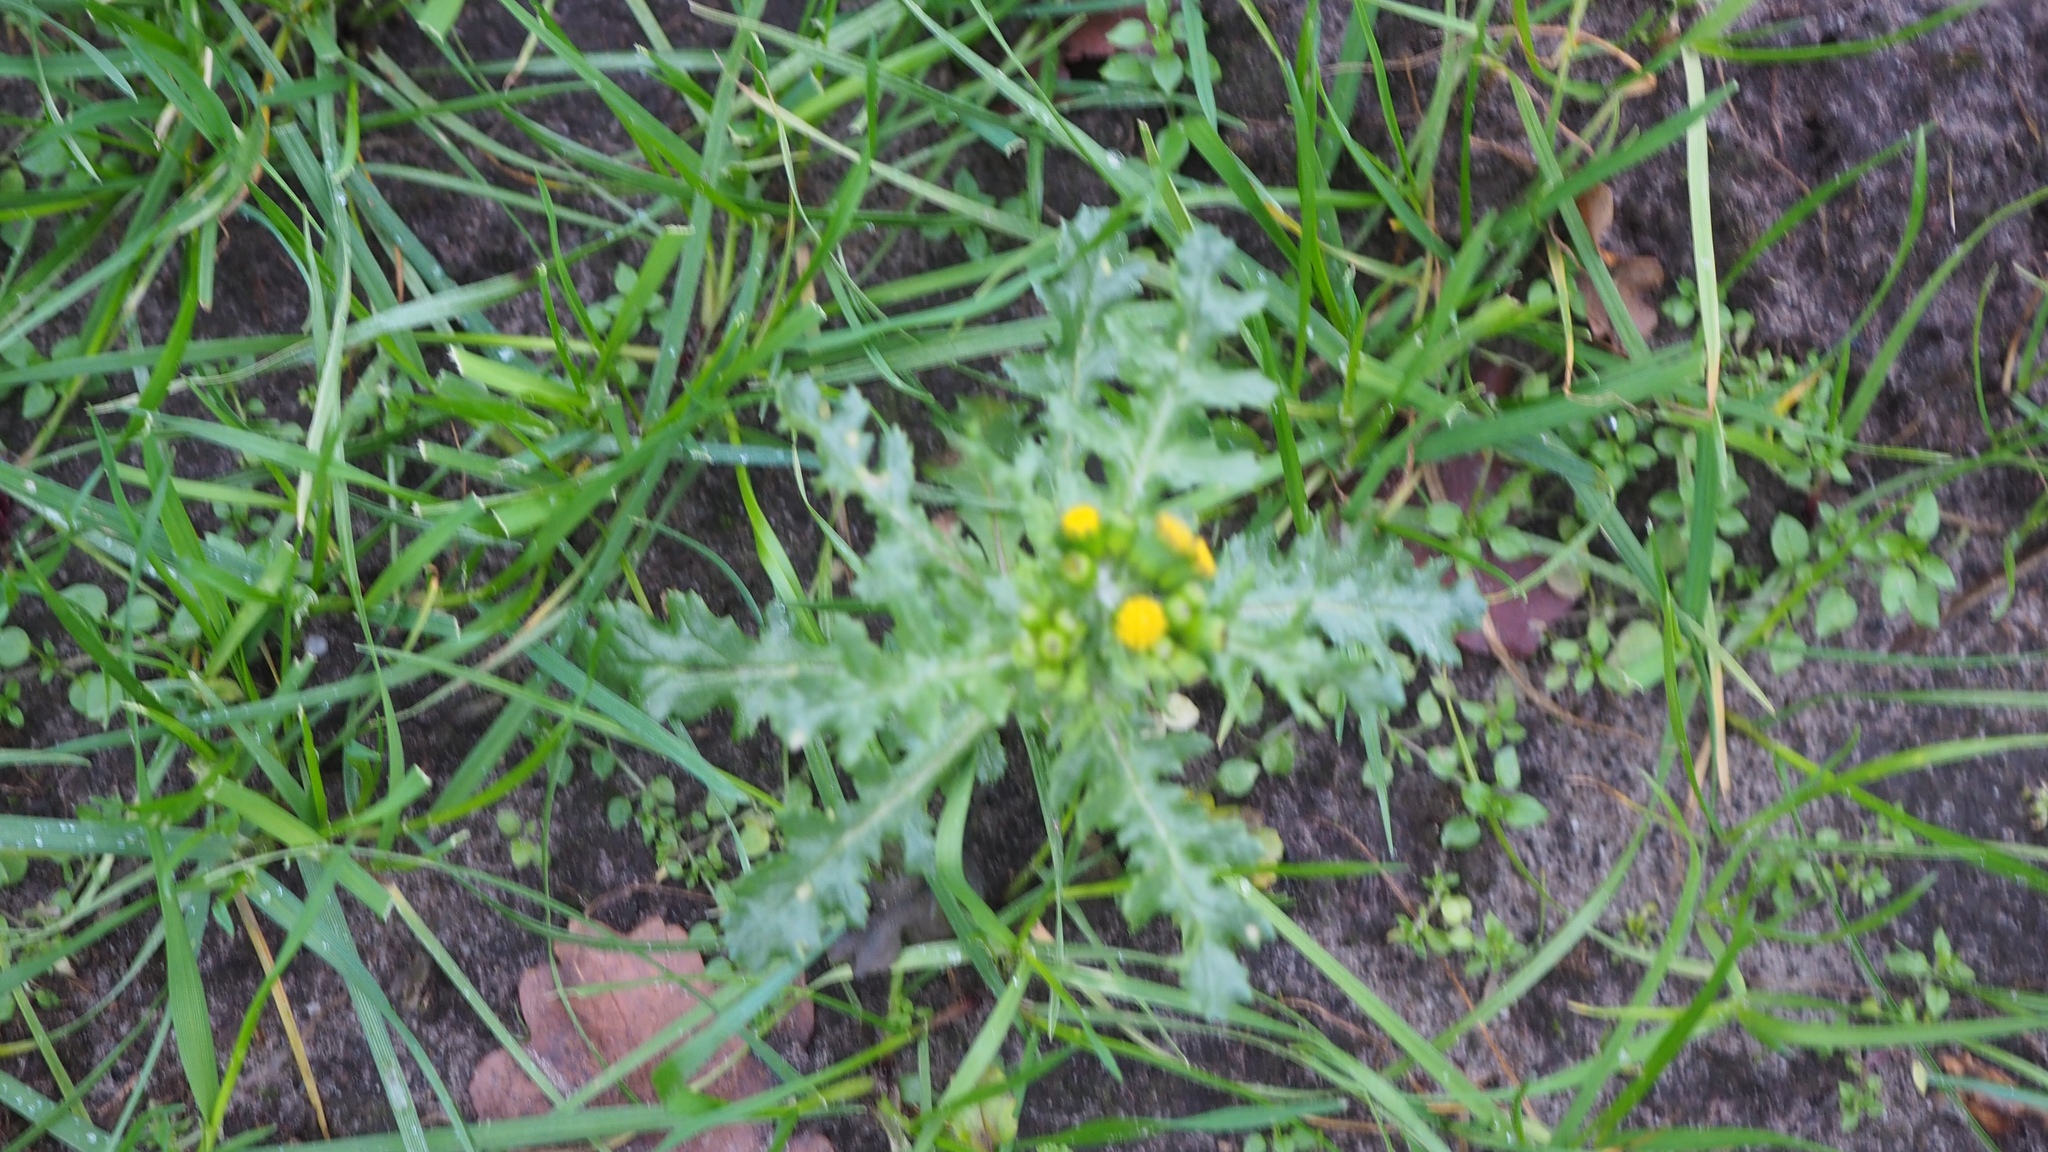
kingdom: Plantae
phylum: Tracheophyta
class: Magnoliopsida
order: Asterales
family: Asteraceae
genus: Senecio
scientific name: Senecio vulgaris
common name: Old-man-in-the-spring
